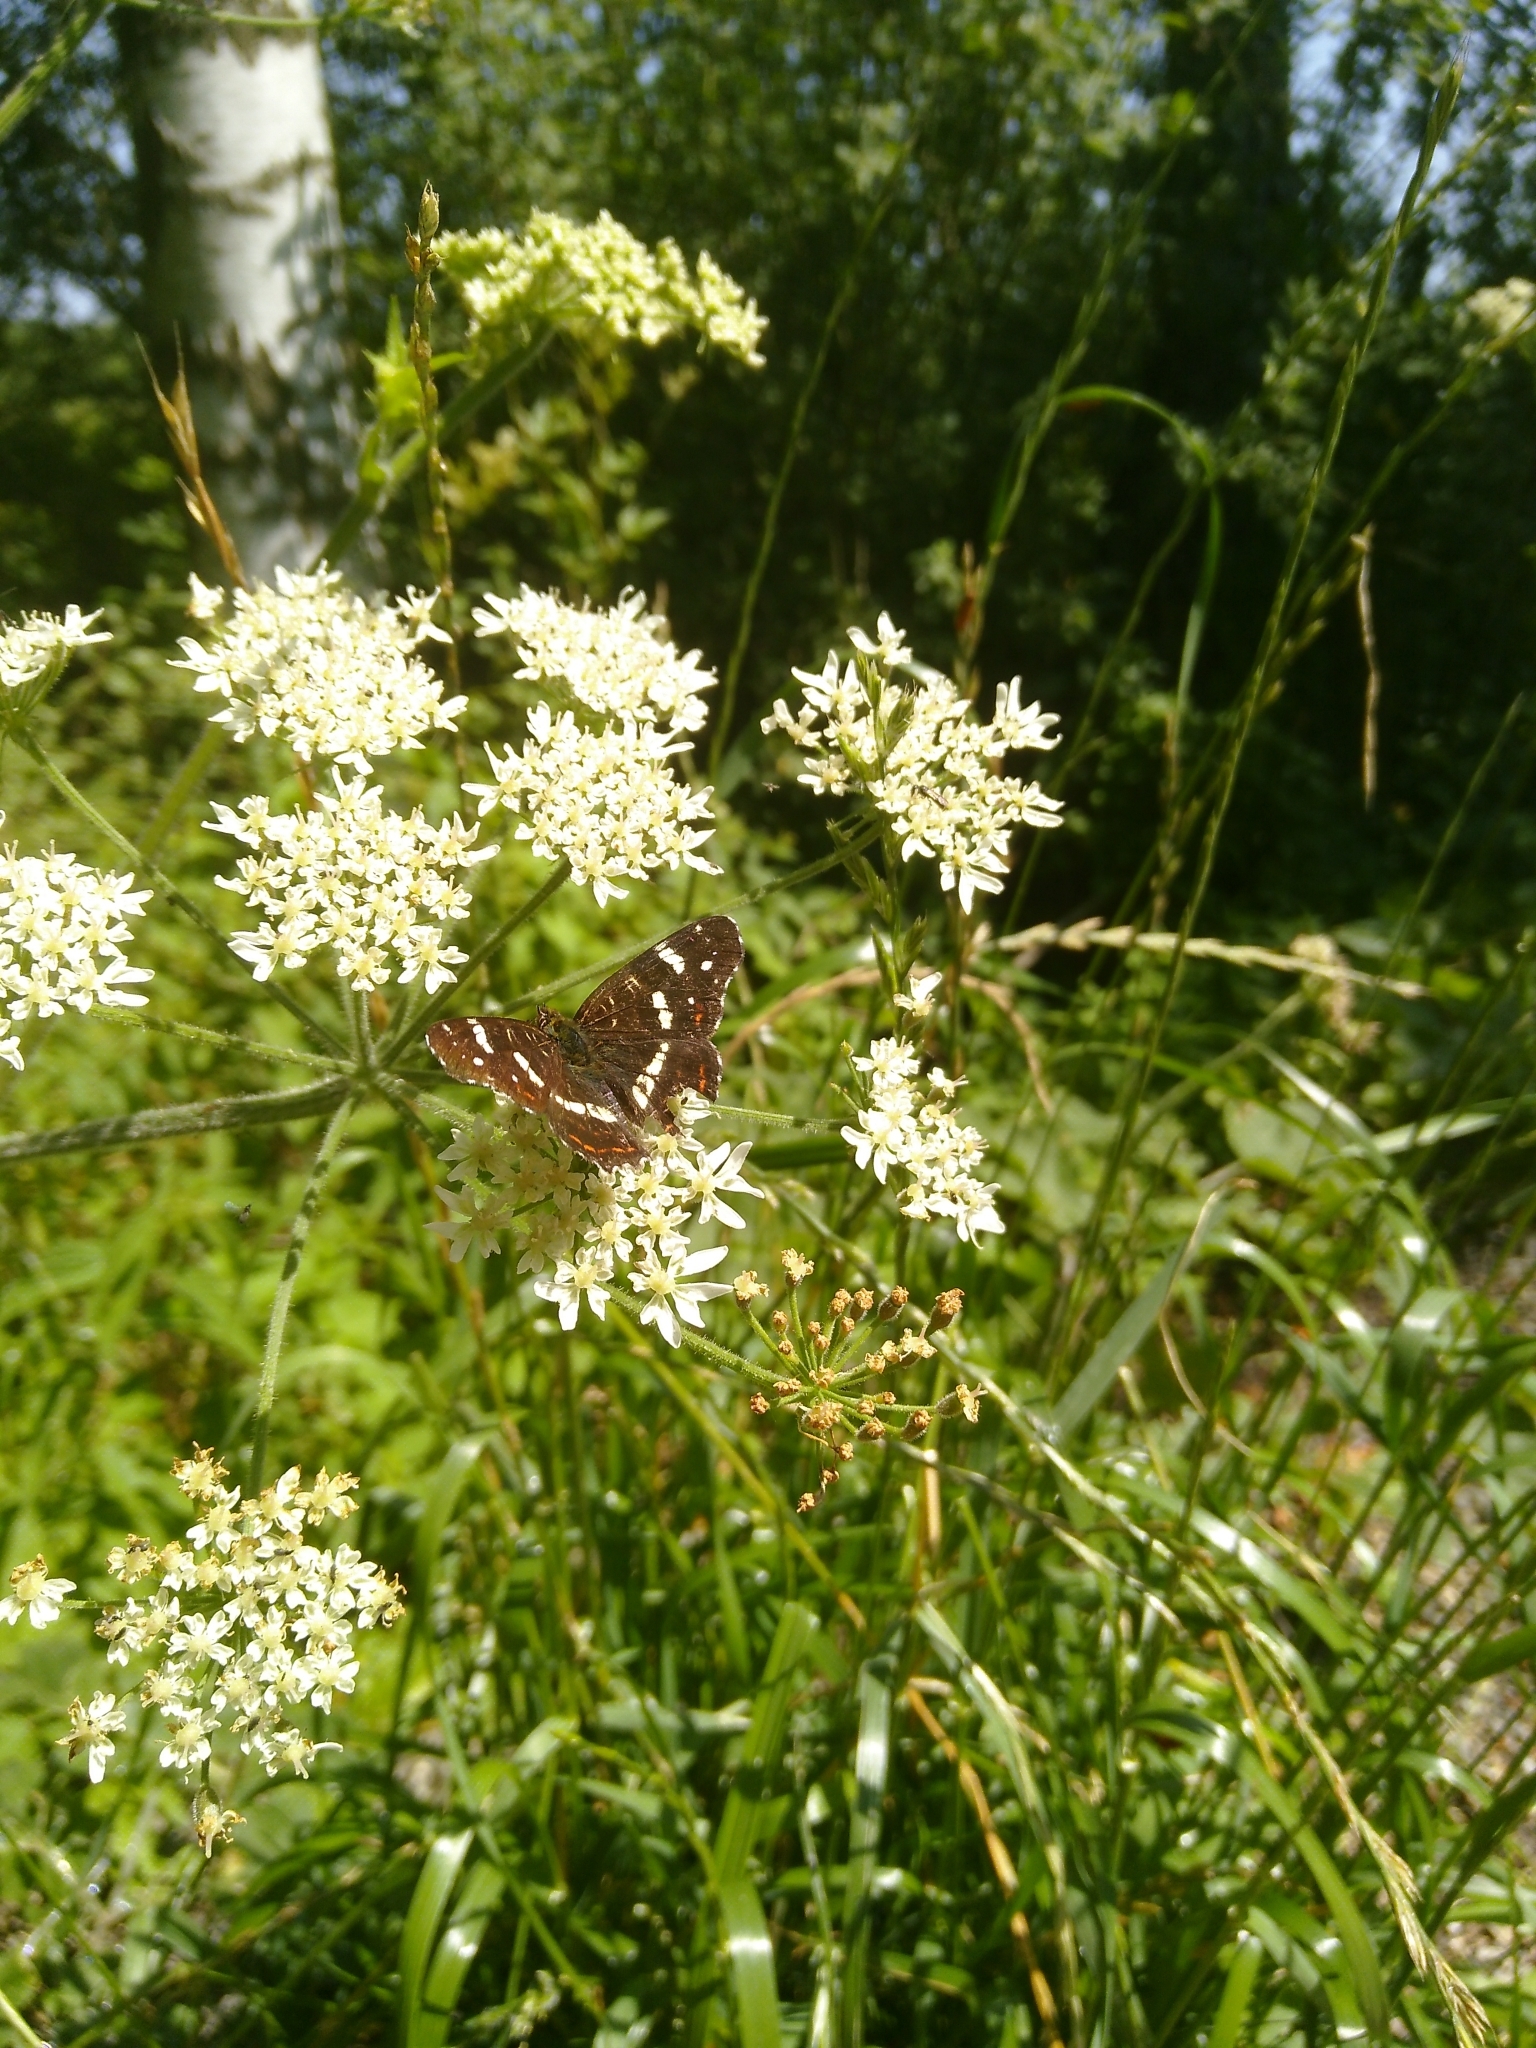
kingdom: Animalia
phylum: Arthropoda
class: Insecta
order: Lepidoptera
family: Nymphalidae
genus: Araschnia
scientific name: Araschnia levana
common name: Map butterfly
